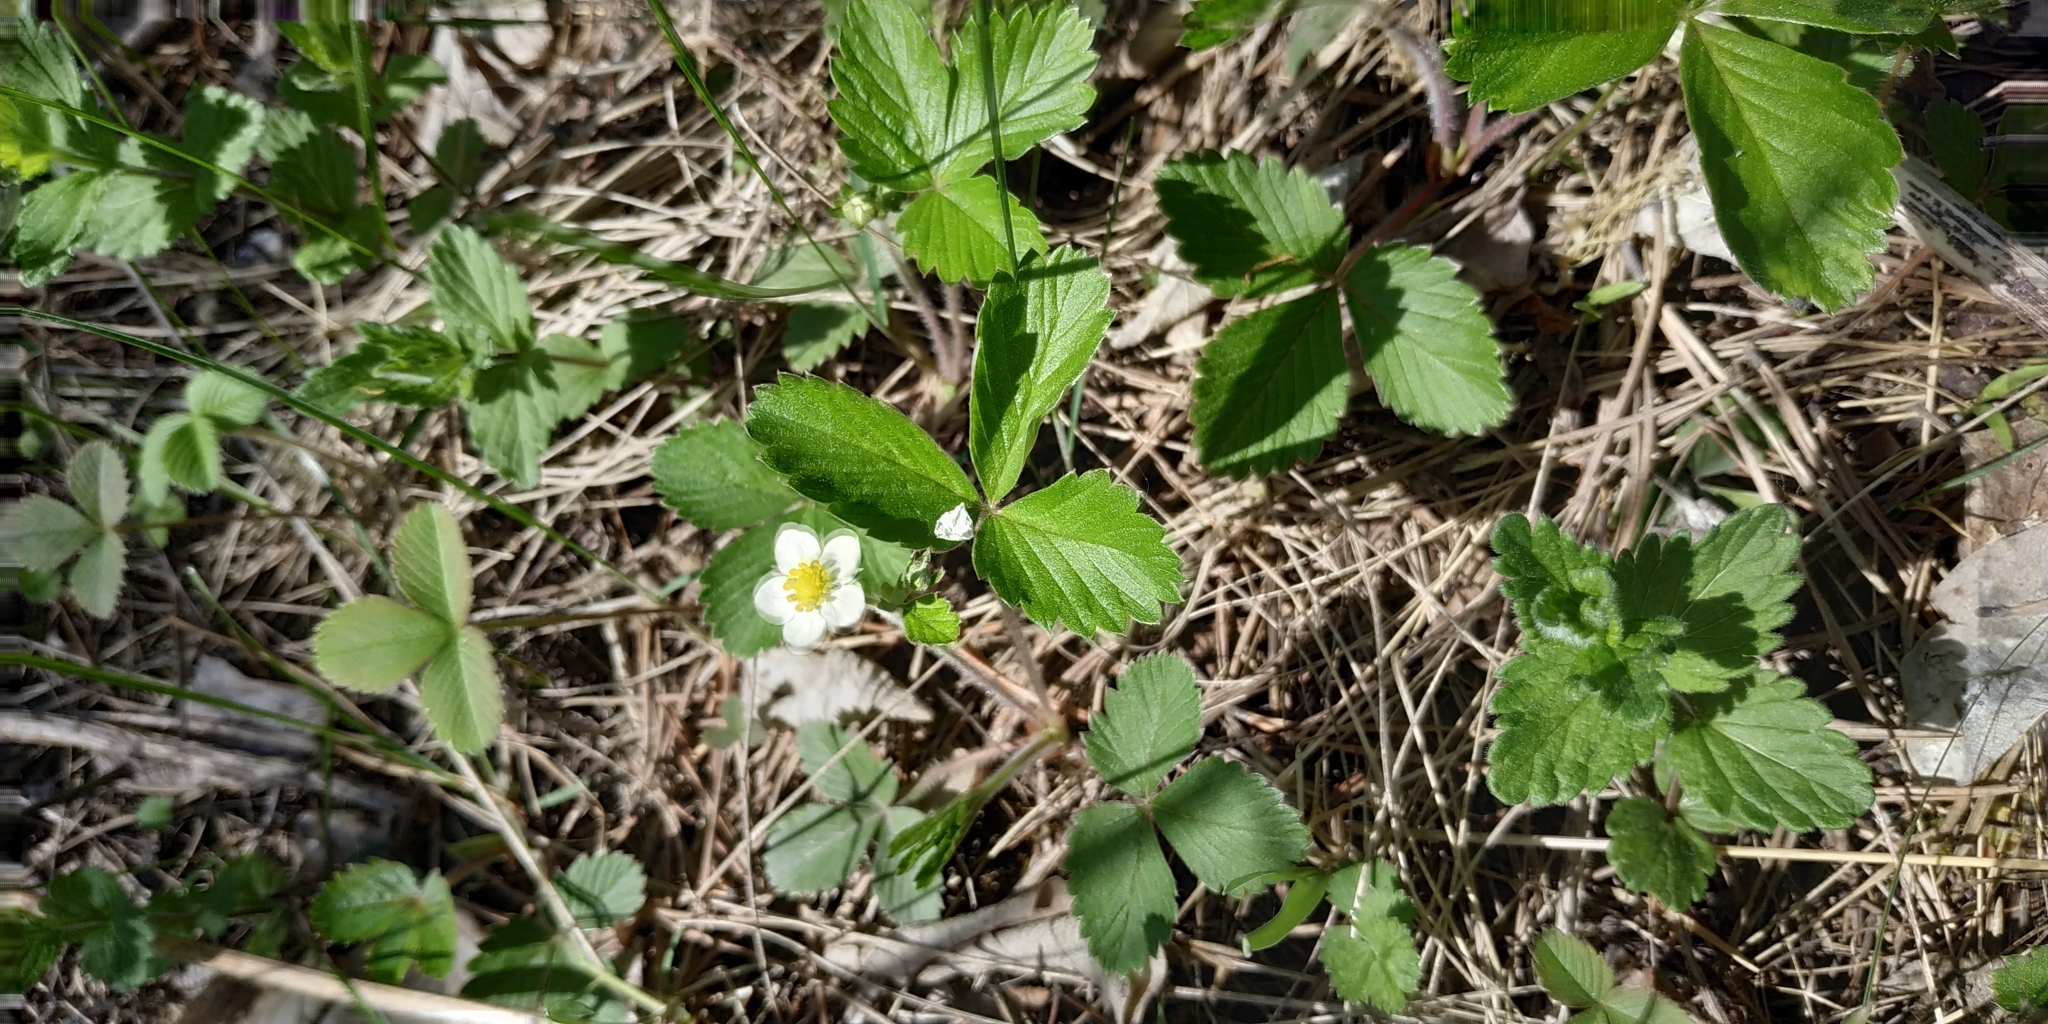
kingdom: Plantae
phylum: Tracheophyta
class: Magnoliopsida
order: Rosales
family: Rosaceae
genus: Fragaria
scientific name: Fragaria vesca
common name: Wild strawberry
